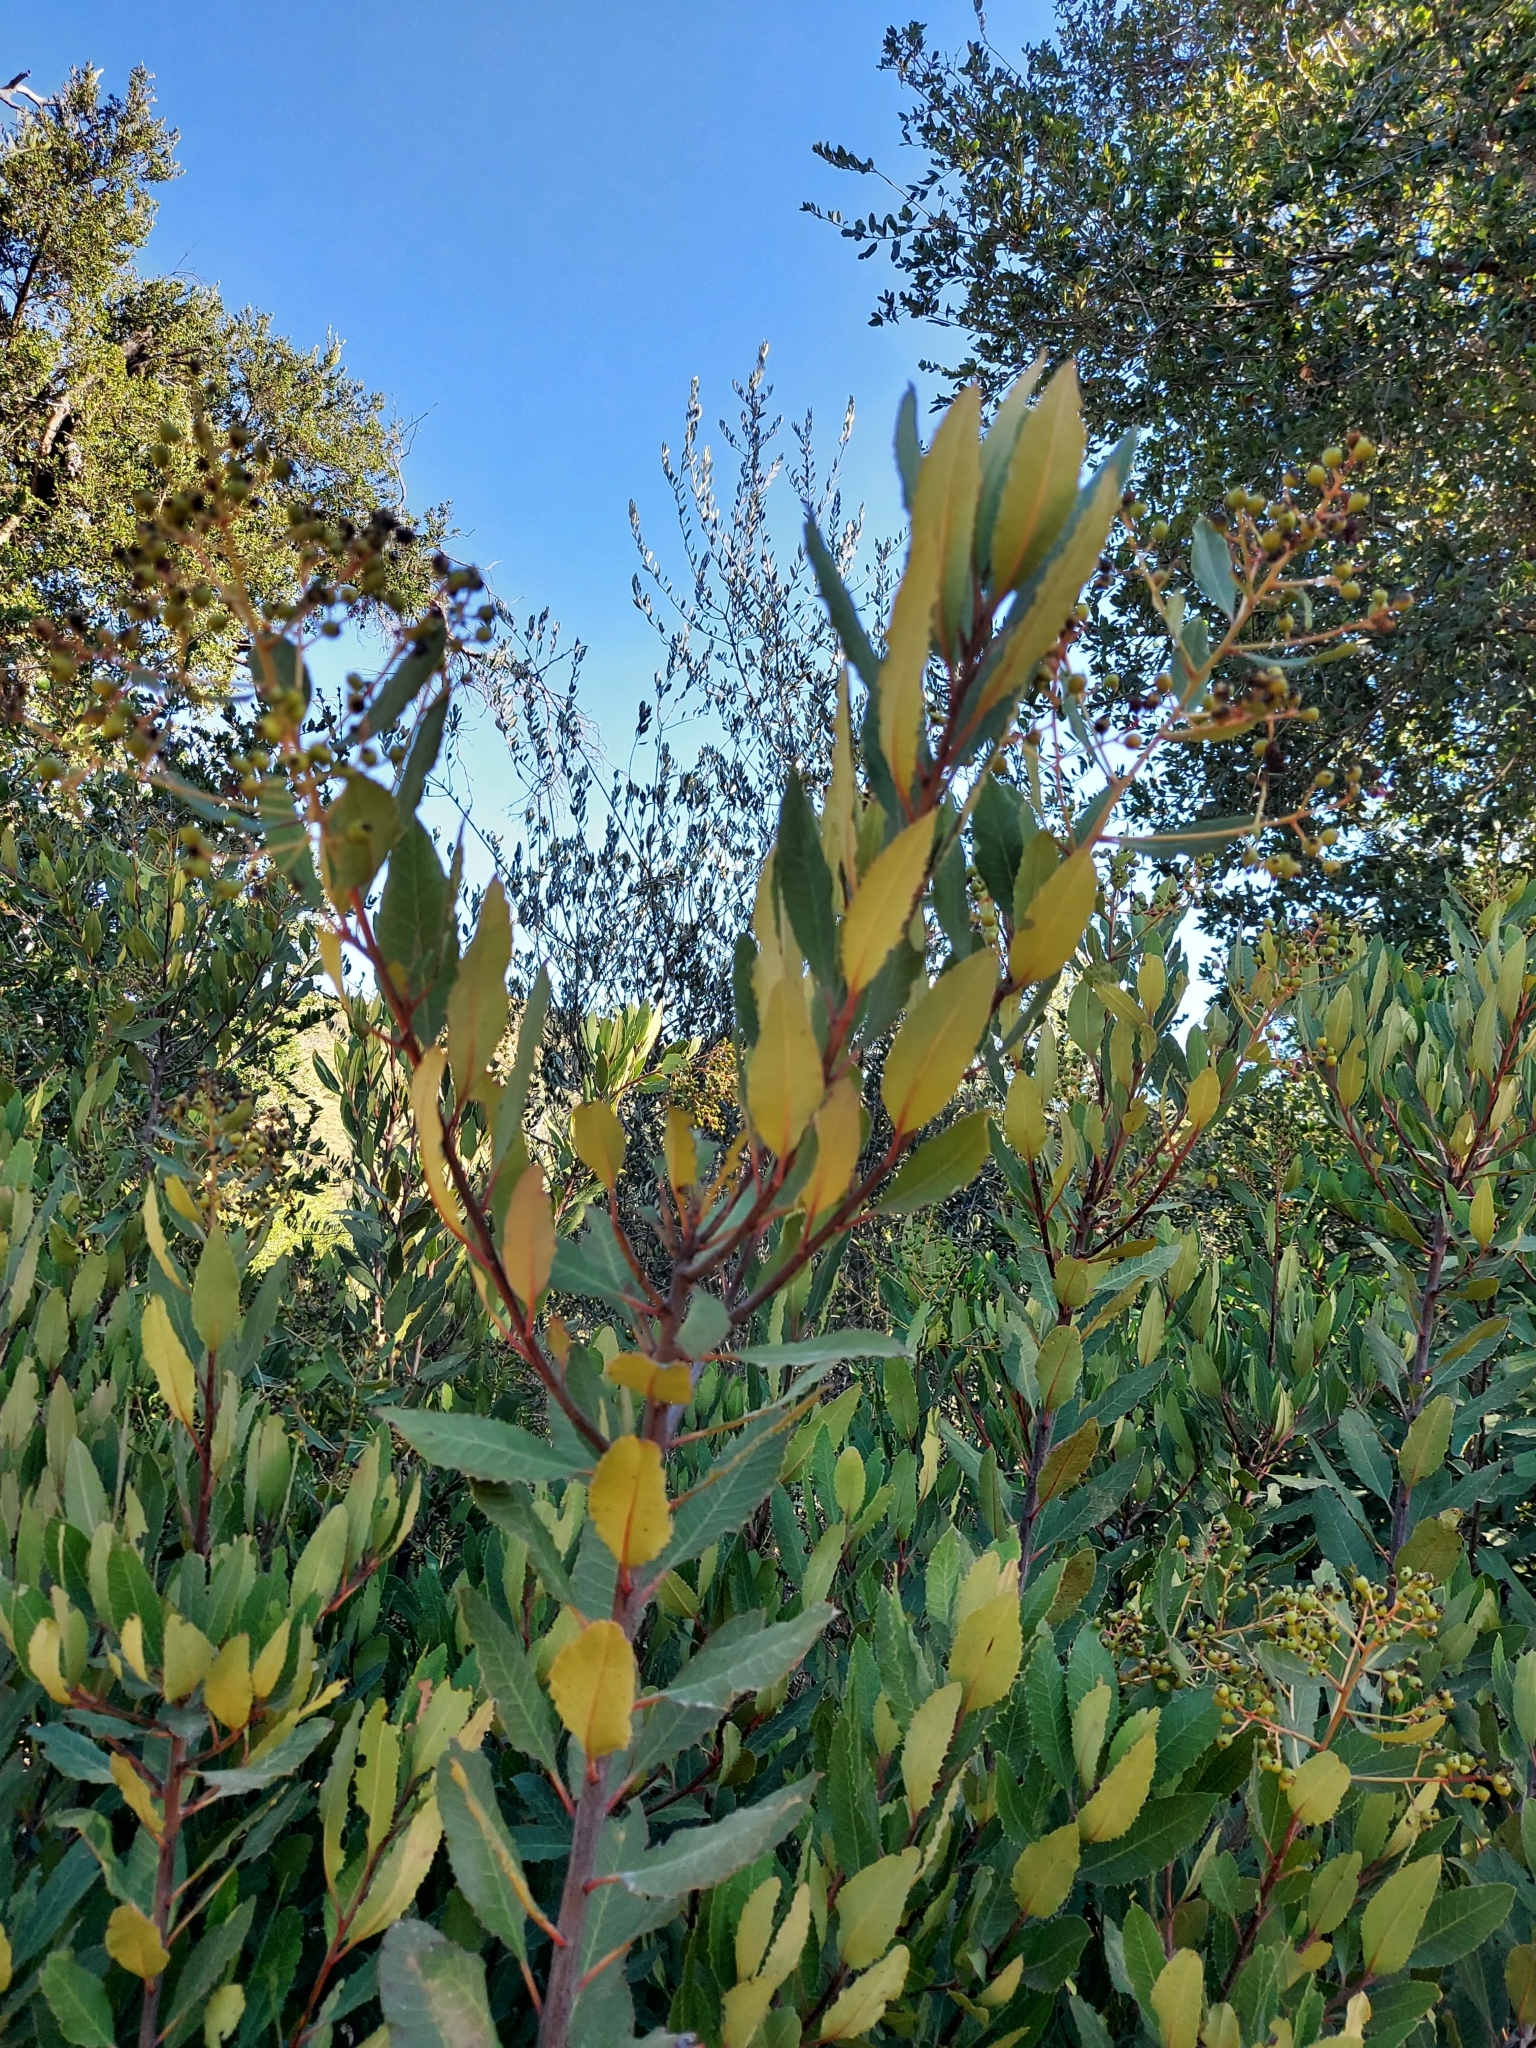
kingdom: Plantae
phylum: Tracheophyta
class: Magnoliopsida
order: Rosales
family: Rosaceae
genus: Heteromeles
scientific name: Heteromeles arbutifolia
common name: California-holly
